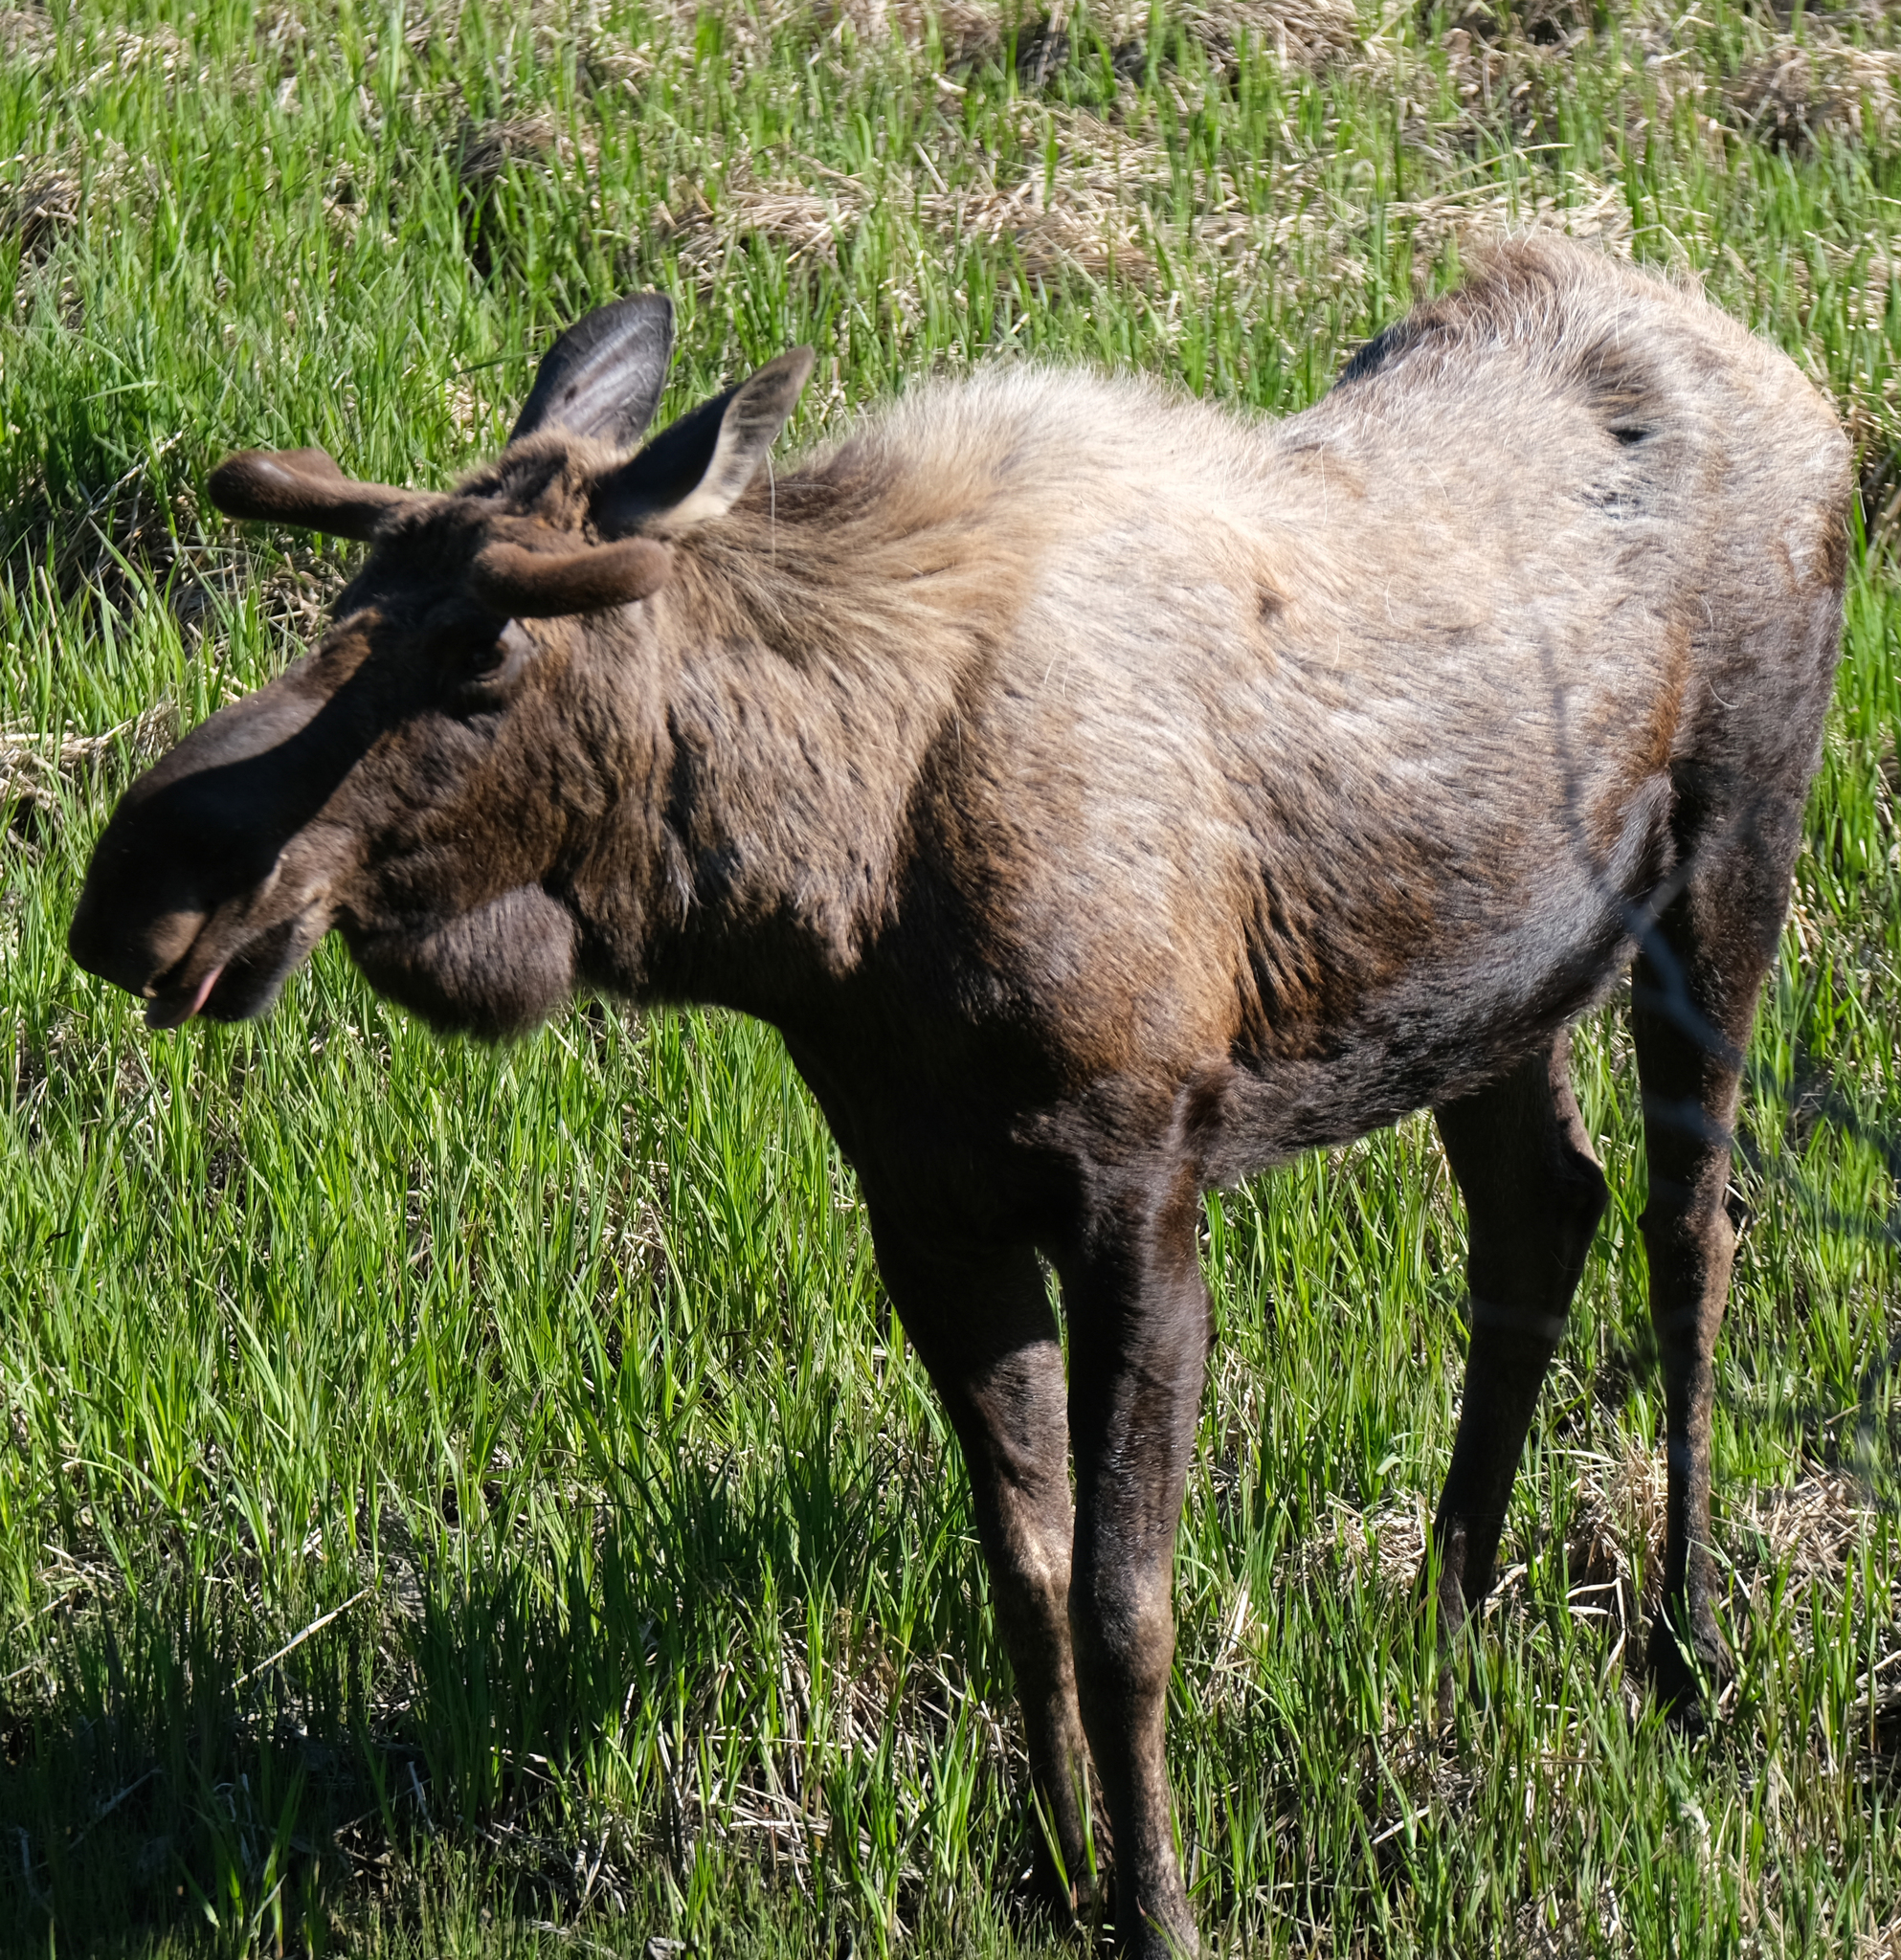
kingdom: Animalia
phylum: Chordata
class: Mammalia
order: Artiodactyla
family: Cervidae
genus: Alces
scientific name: Alces alces
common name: Moose
